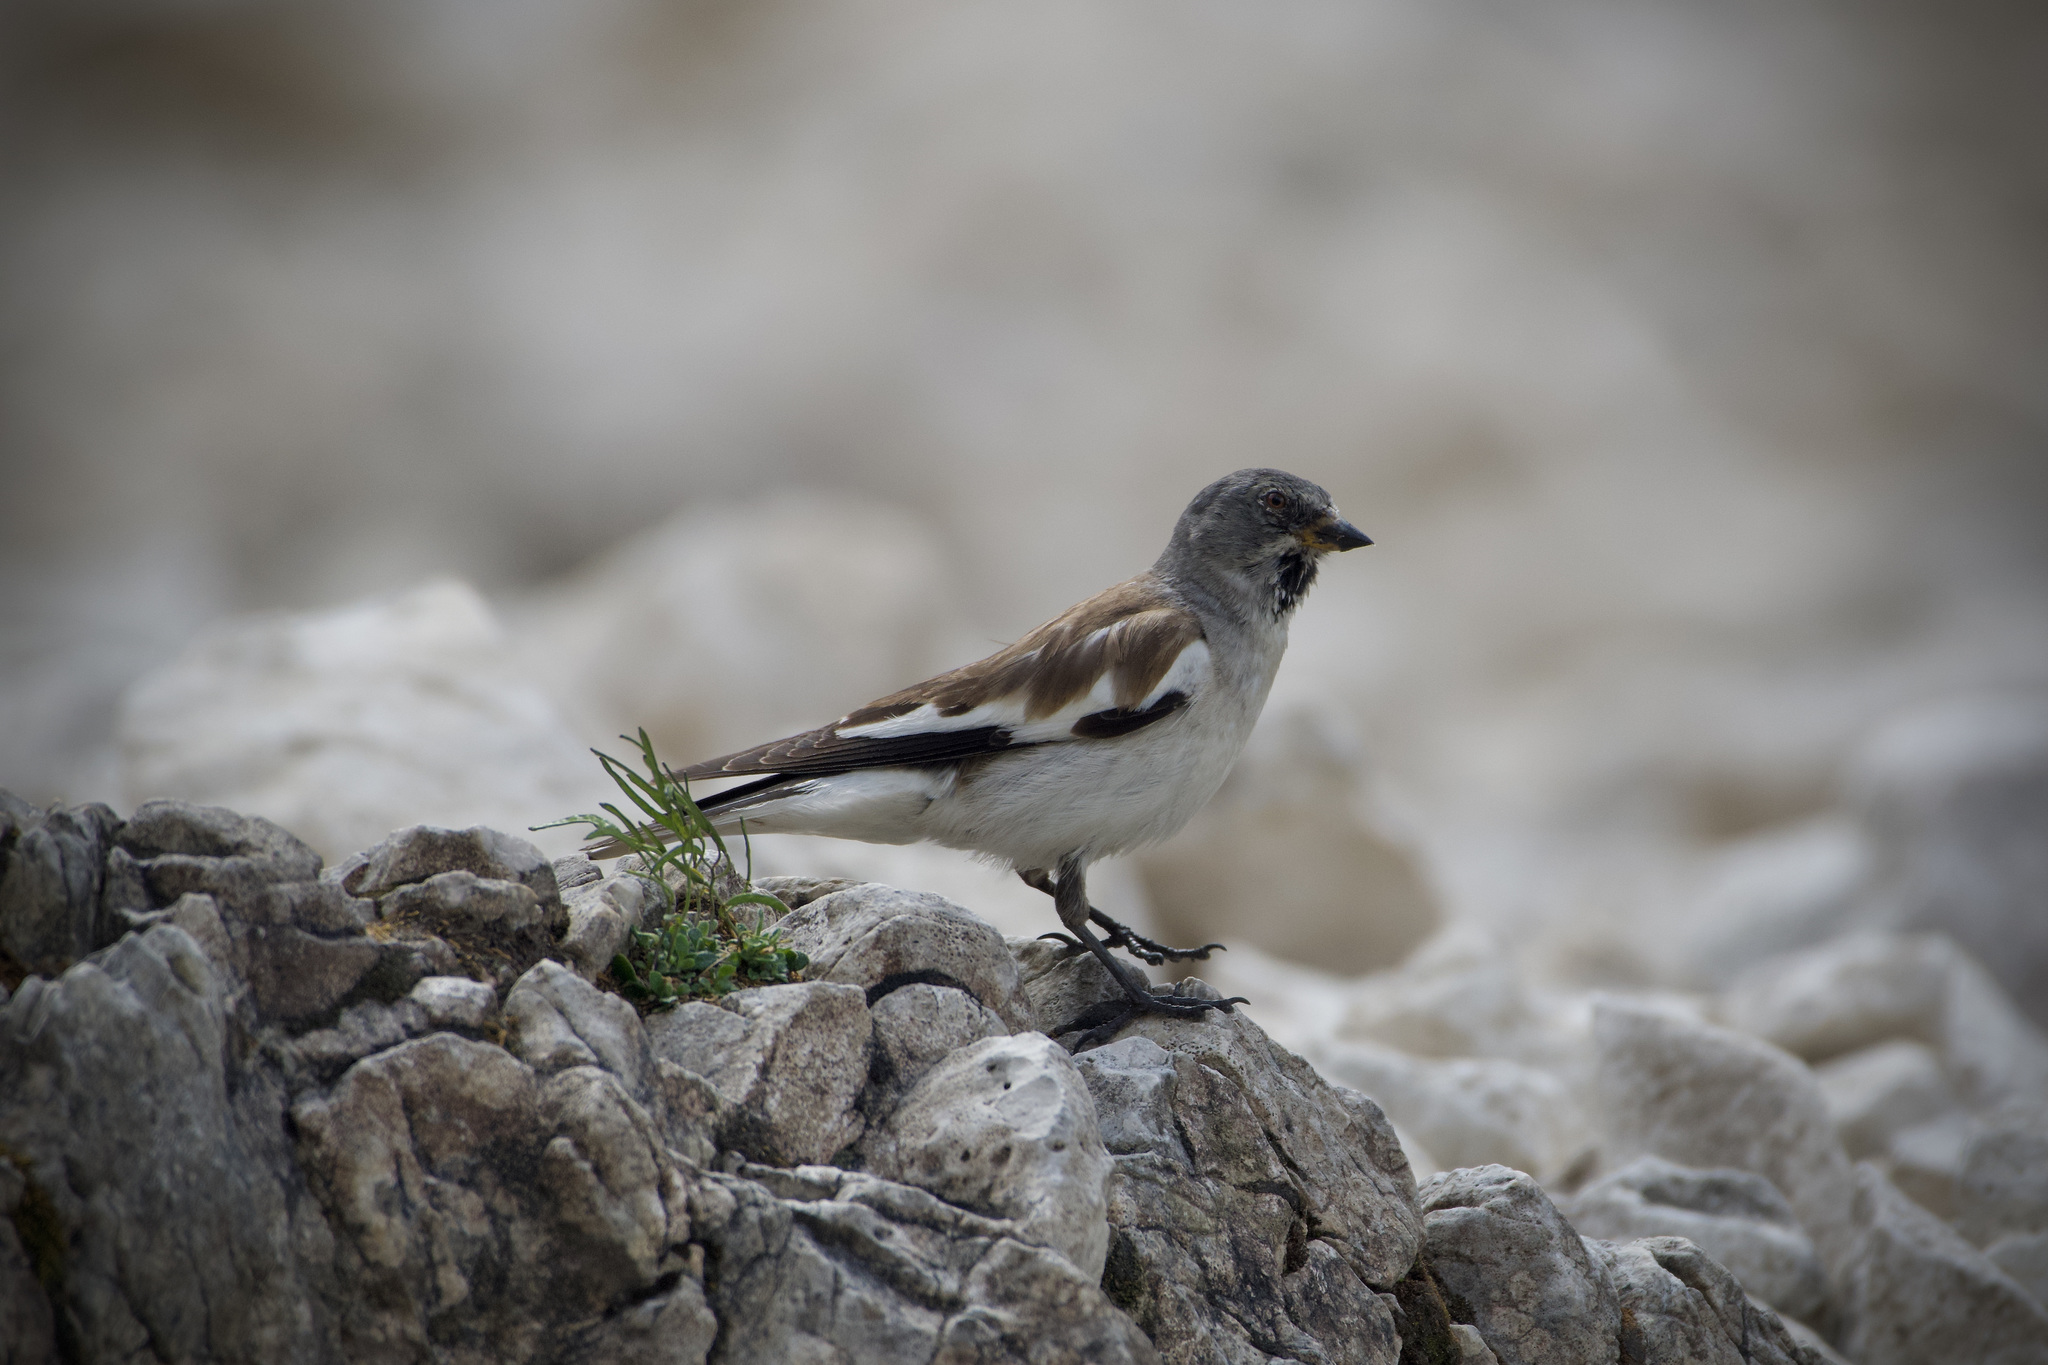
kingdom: Animalia
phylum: Chordata
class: Aves
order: Passeriformes
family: Passeridae
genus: Montifringilla
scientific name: Montifringilla nivalis
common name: White-winged snowfinch
